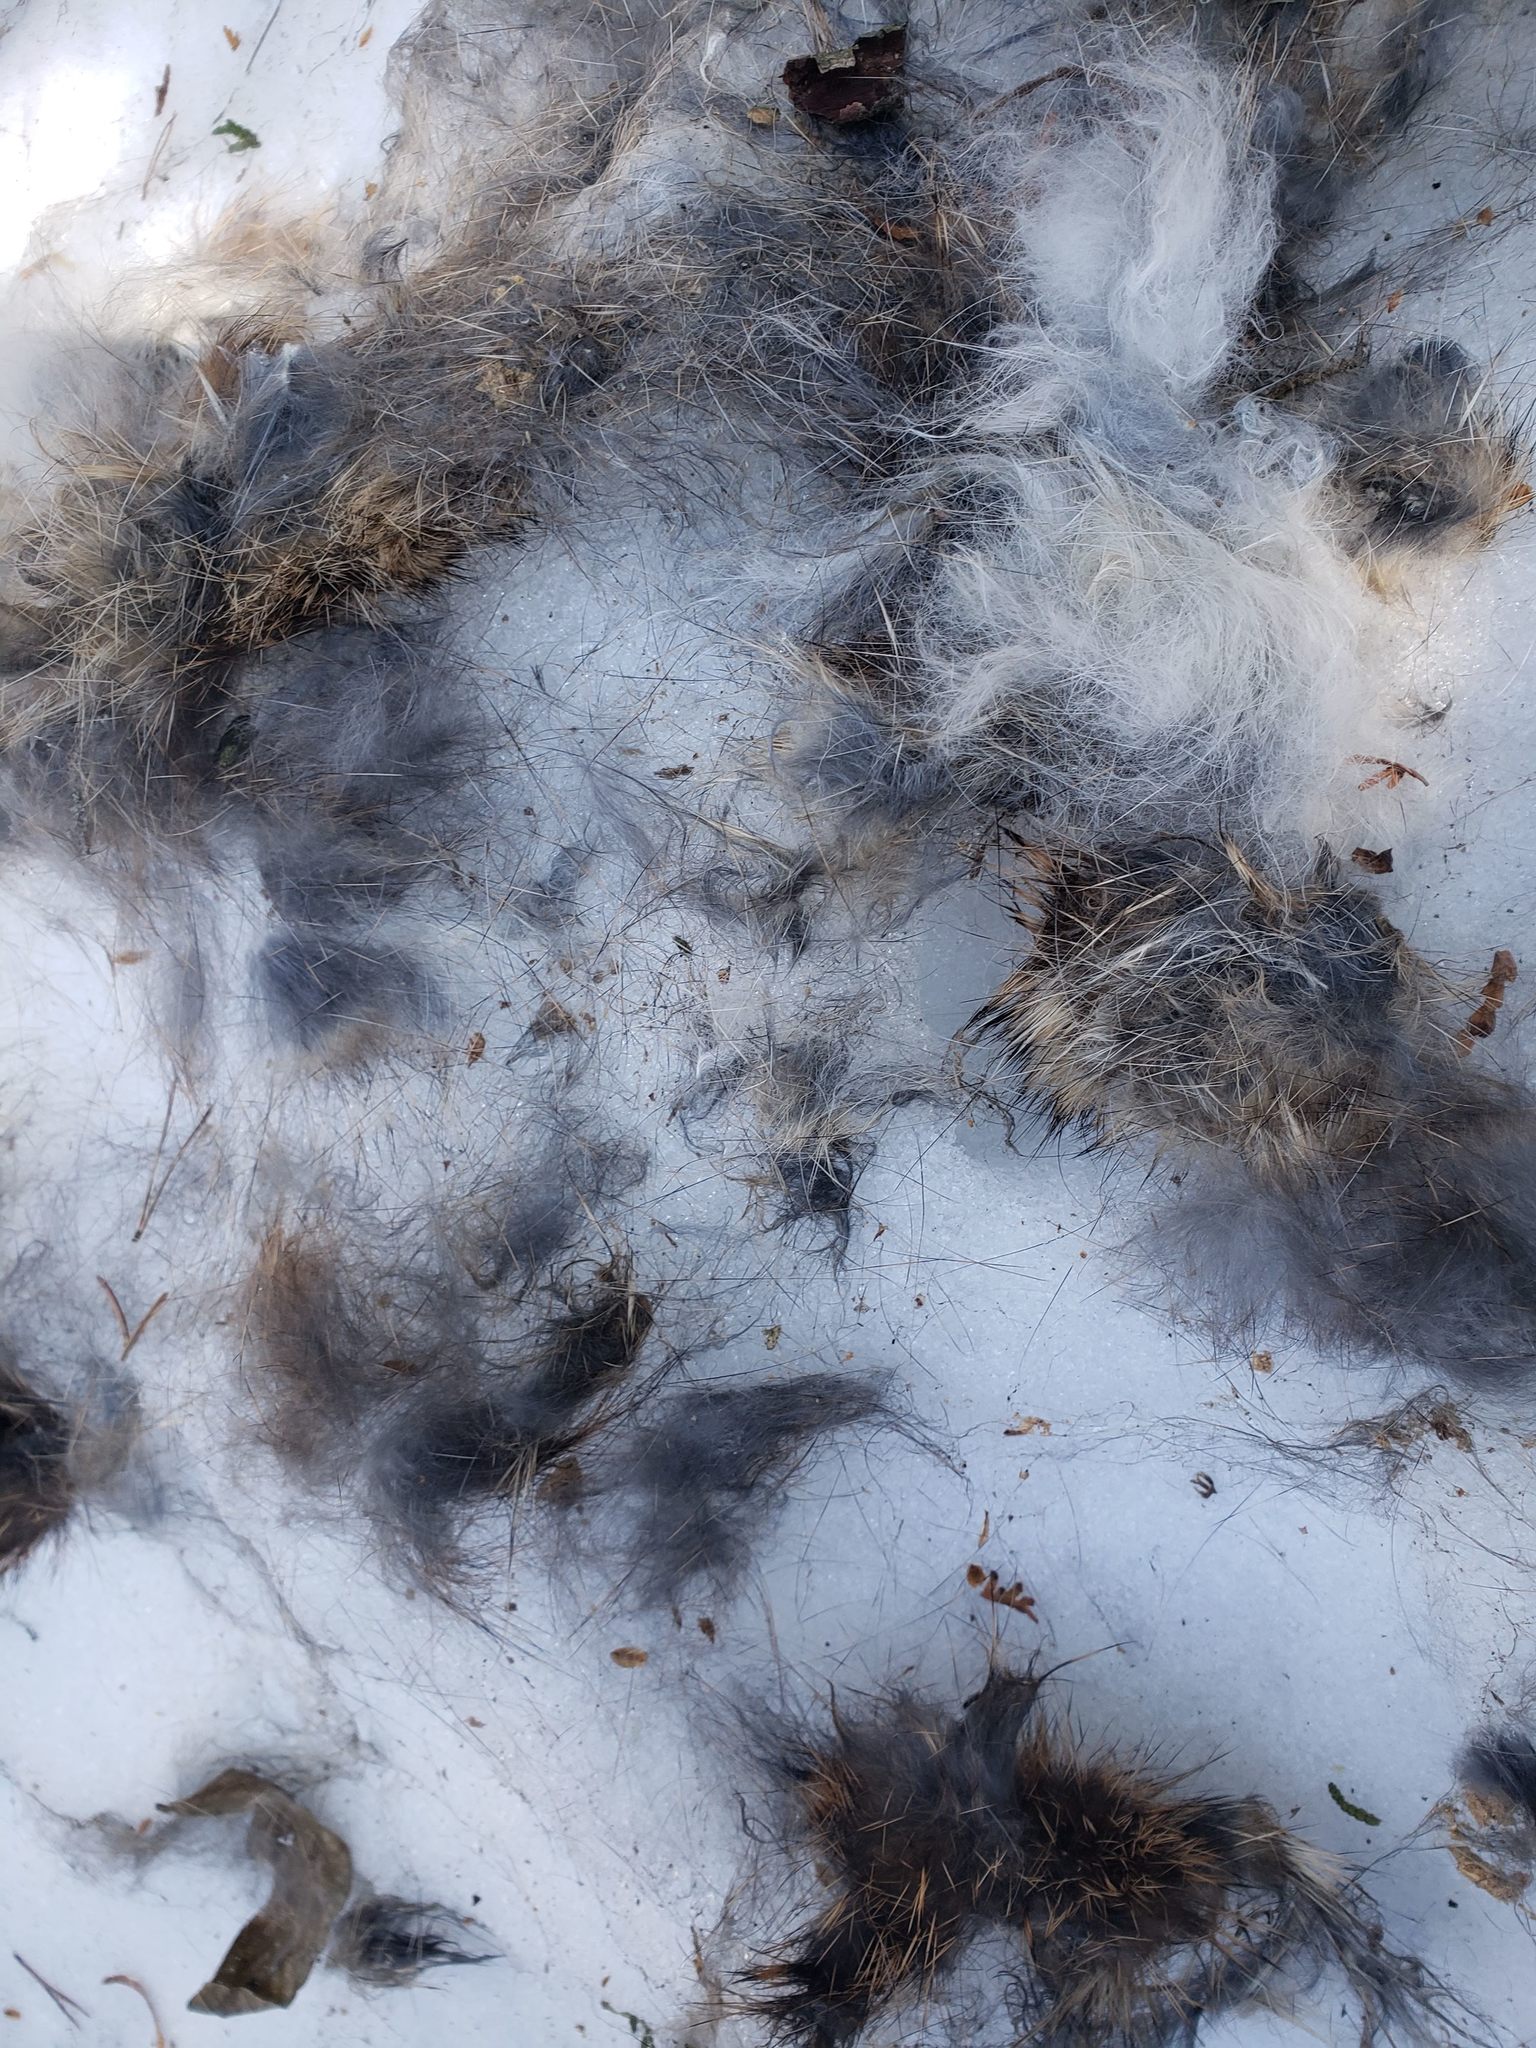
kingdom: Animalia
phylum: Chordata
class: Mammalia
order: Lagomorpha
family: Leporidae
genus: Sylvilagus
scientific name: Sylvilagus floridanus
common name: Eastern cottontail
